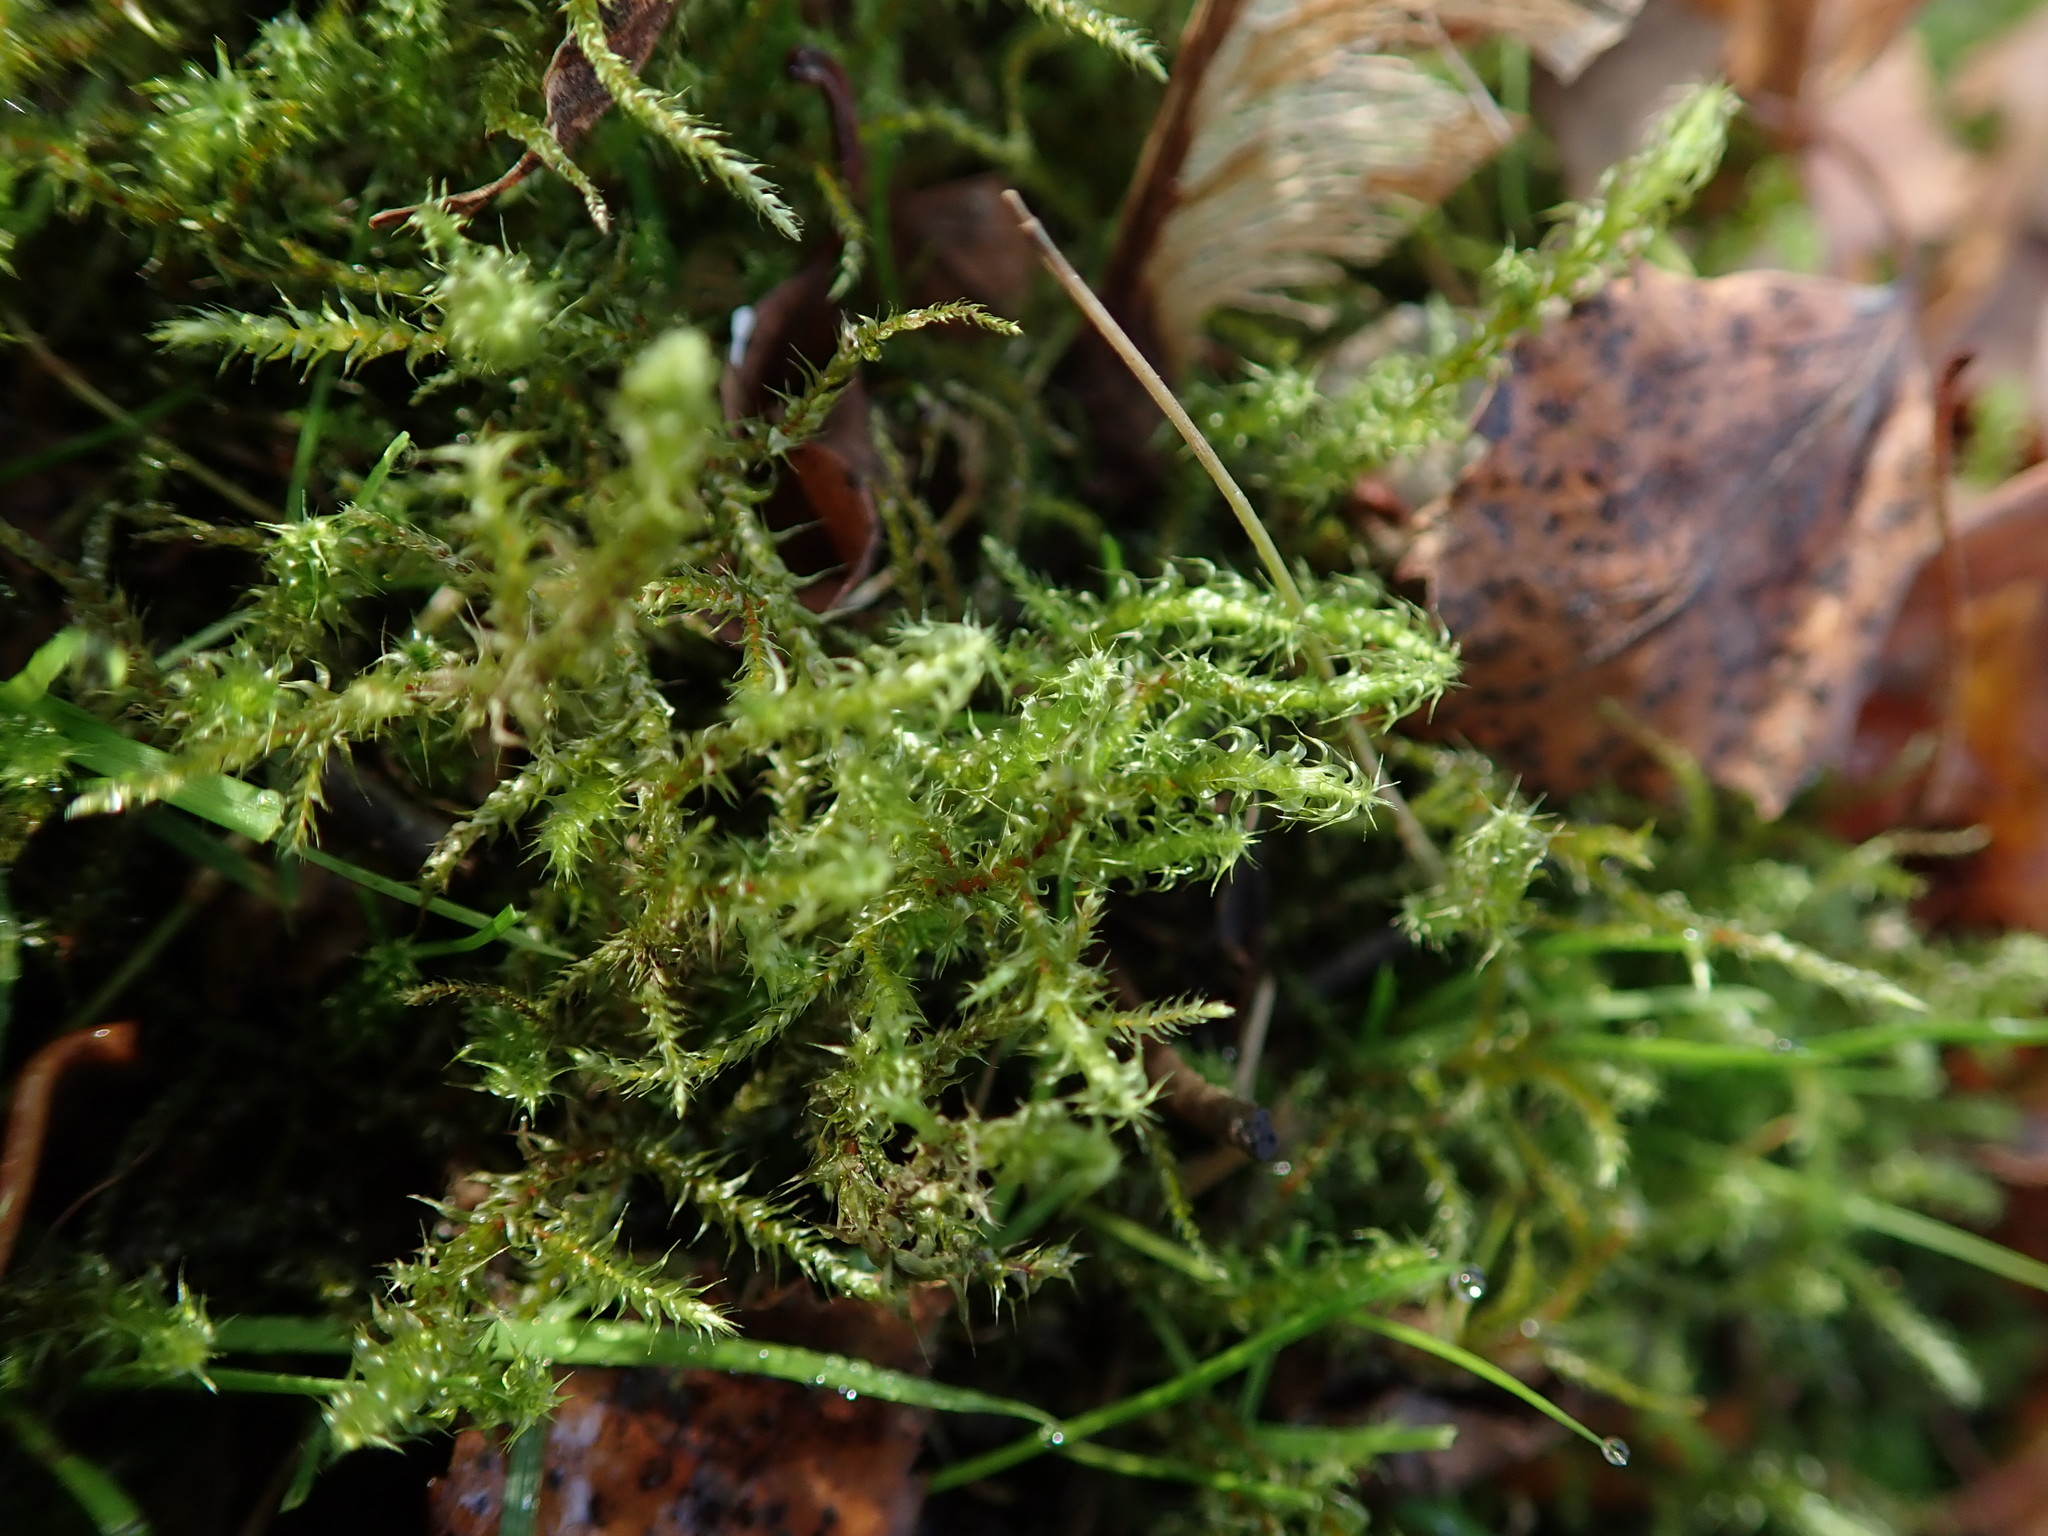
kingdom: Plantae
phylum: Bryophyta
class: Bryopsida
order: Hypnales
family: Hylocomiaceae
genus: Rhytidiadelphus
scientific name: Rhytidiadelphus squarrosus
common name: Springy turf-moss
